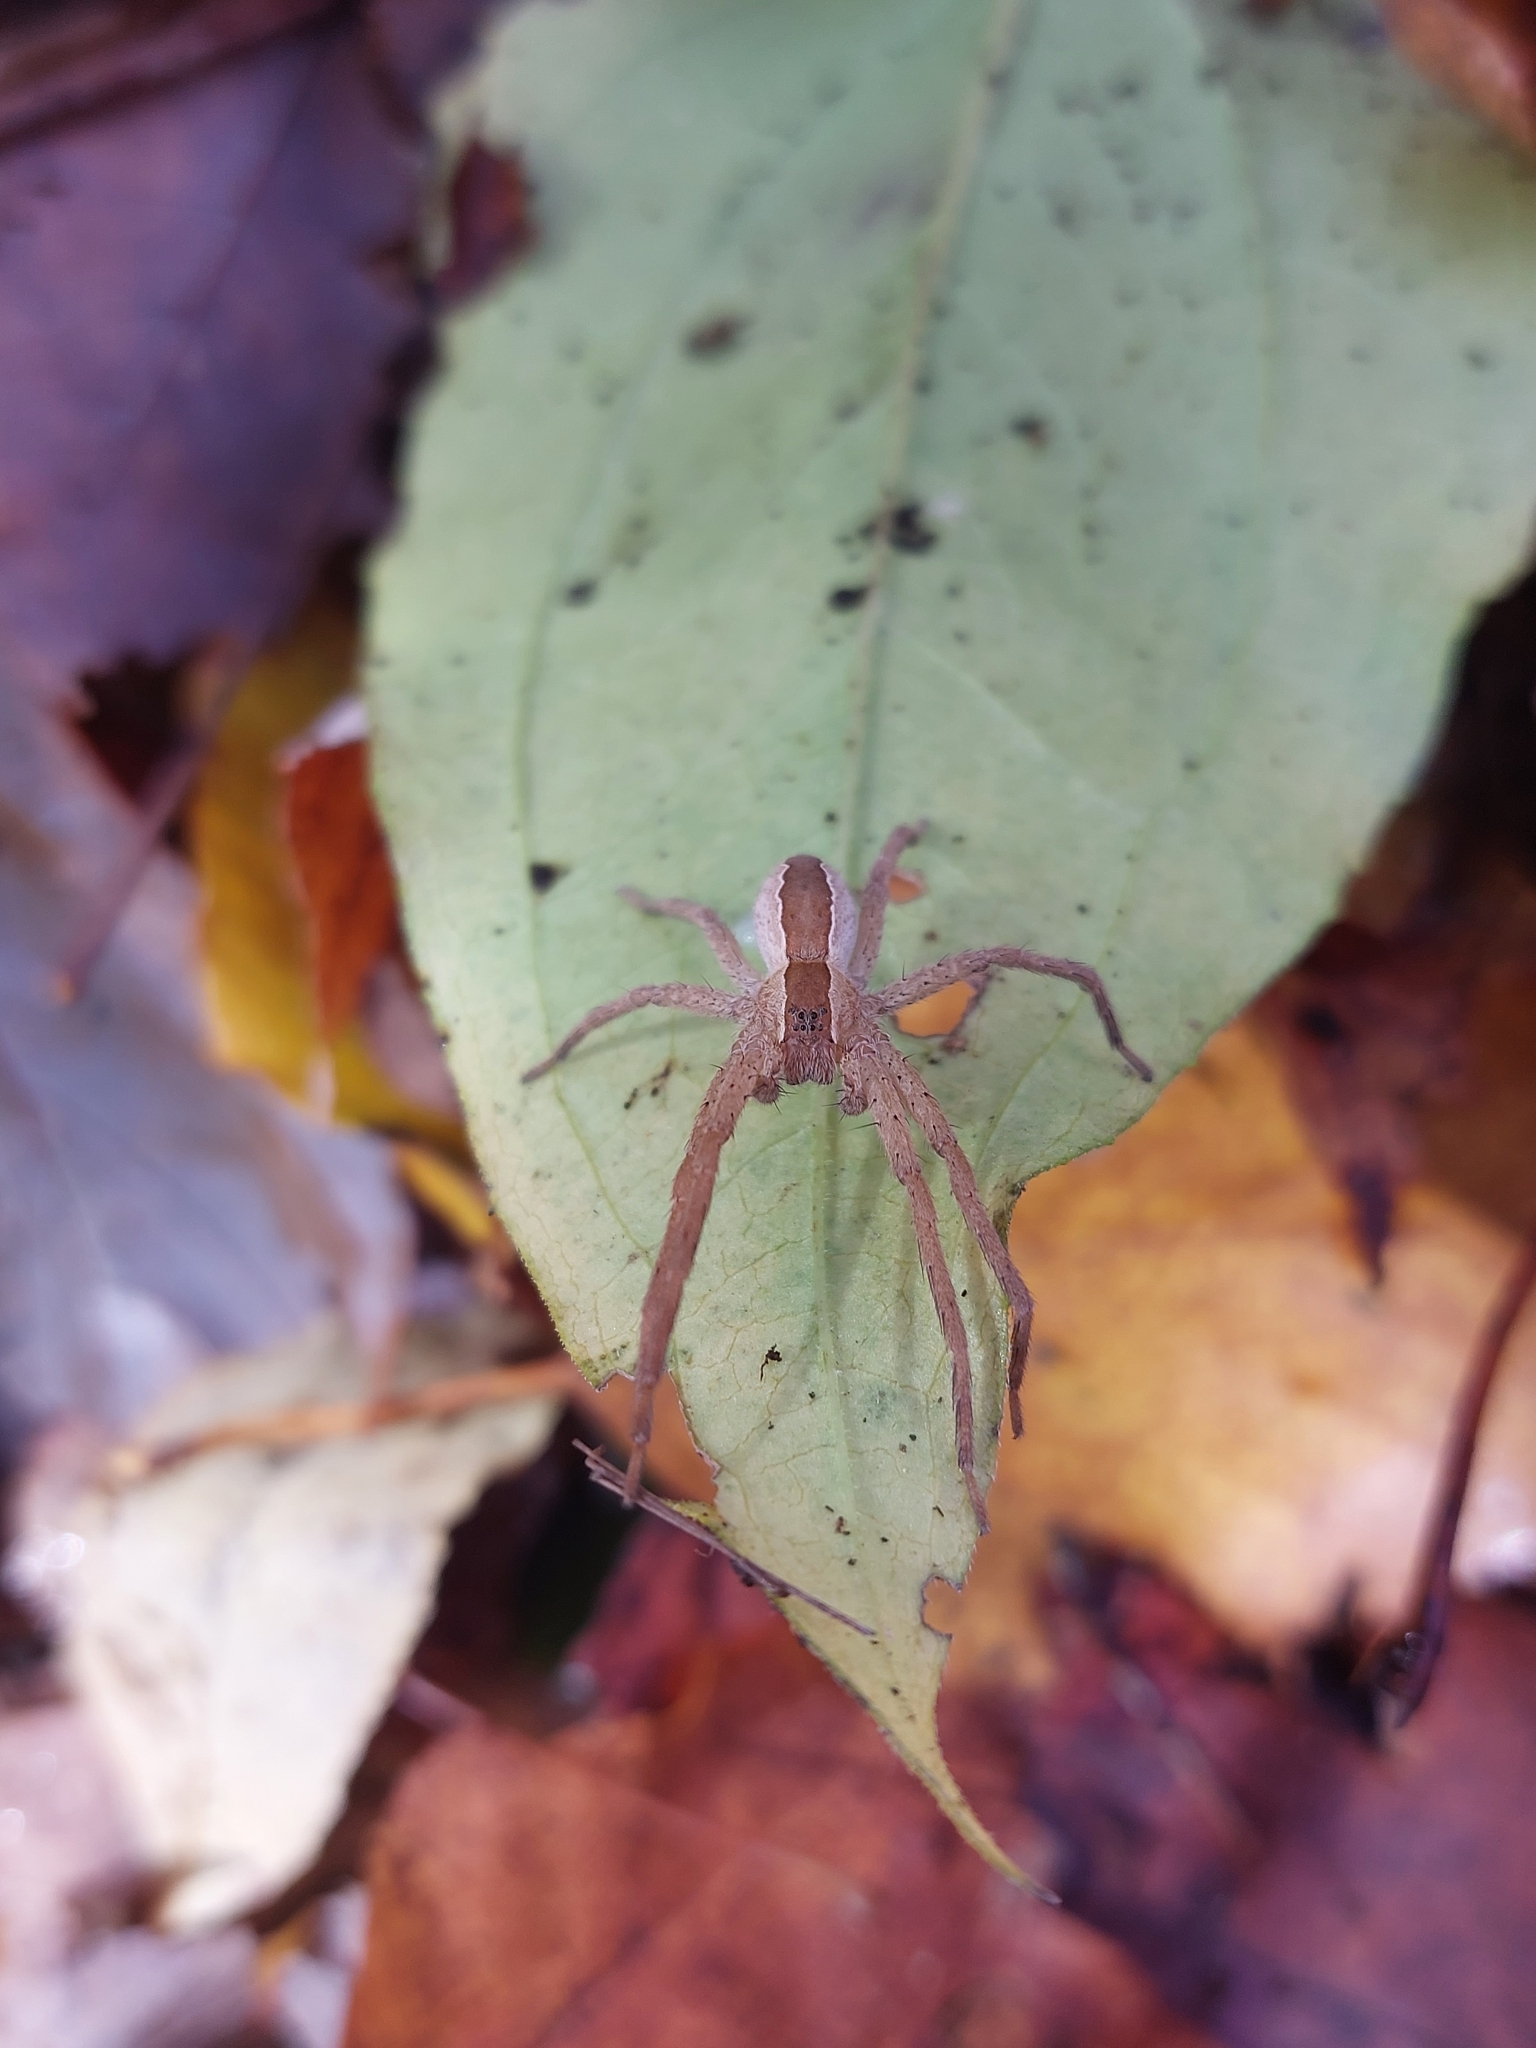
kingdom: Animalia
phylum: Arthropoda
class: Arachnida
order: Araneae
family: Pisauridae
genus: Pisaurina
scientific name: Pisaurina mira
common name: American nursery web spider
